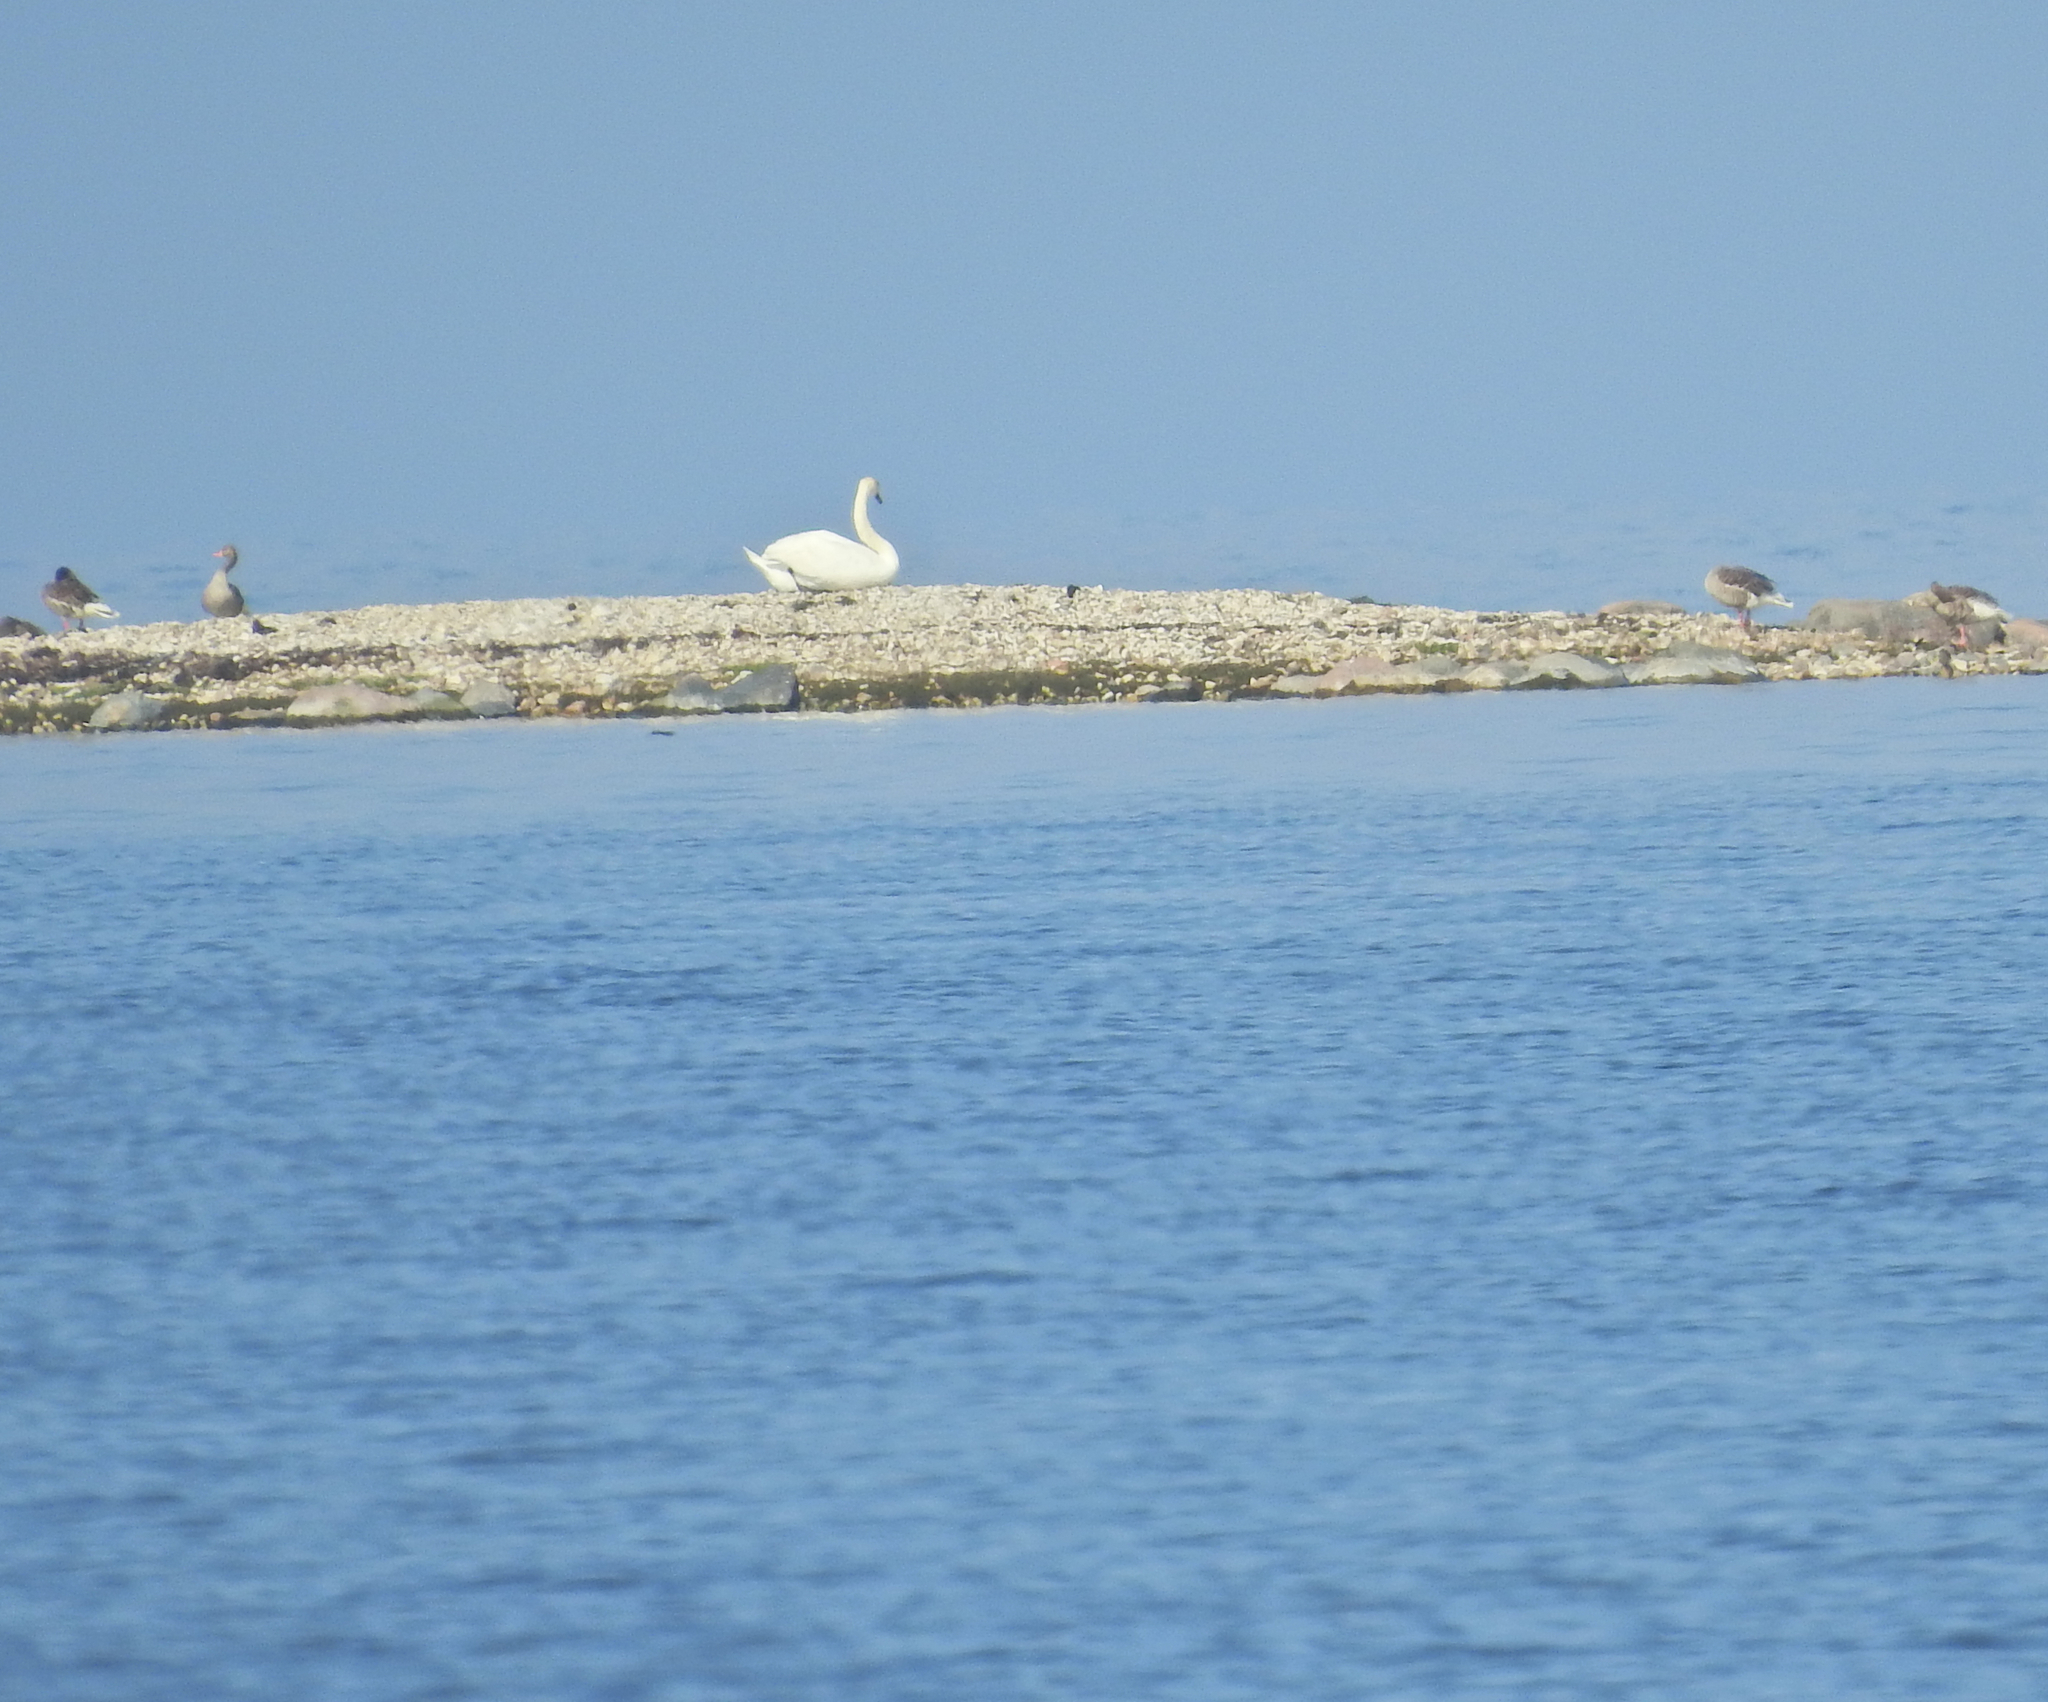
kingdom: Animalia
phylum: Chordata
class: Aves
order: Anseriformes
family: Anatidae
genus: Anser
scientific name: Anser anser
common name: Greylag goose
